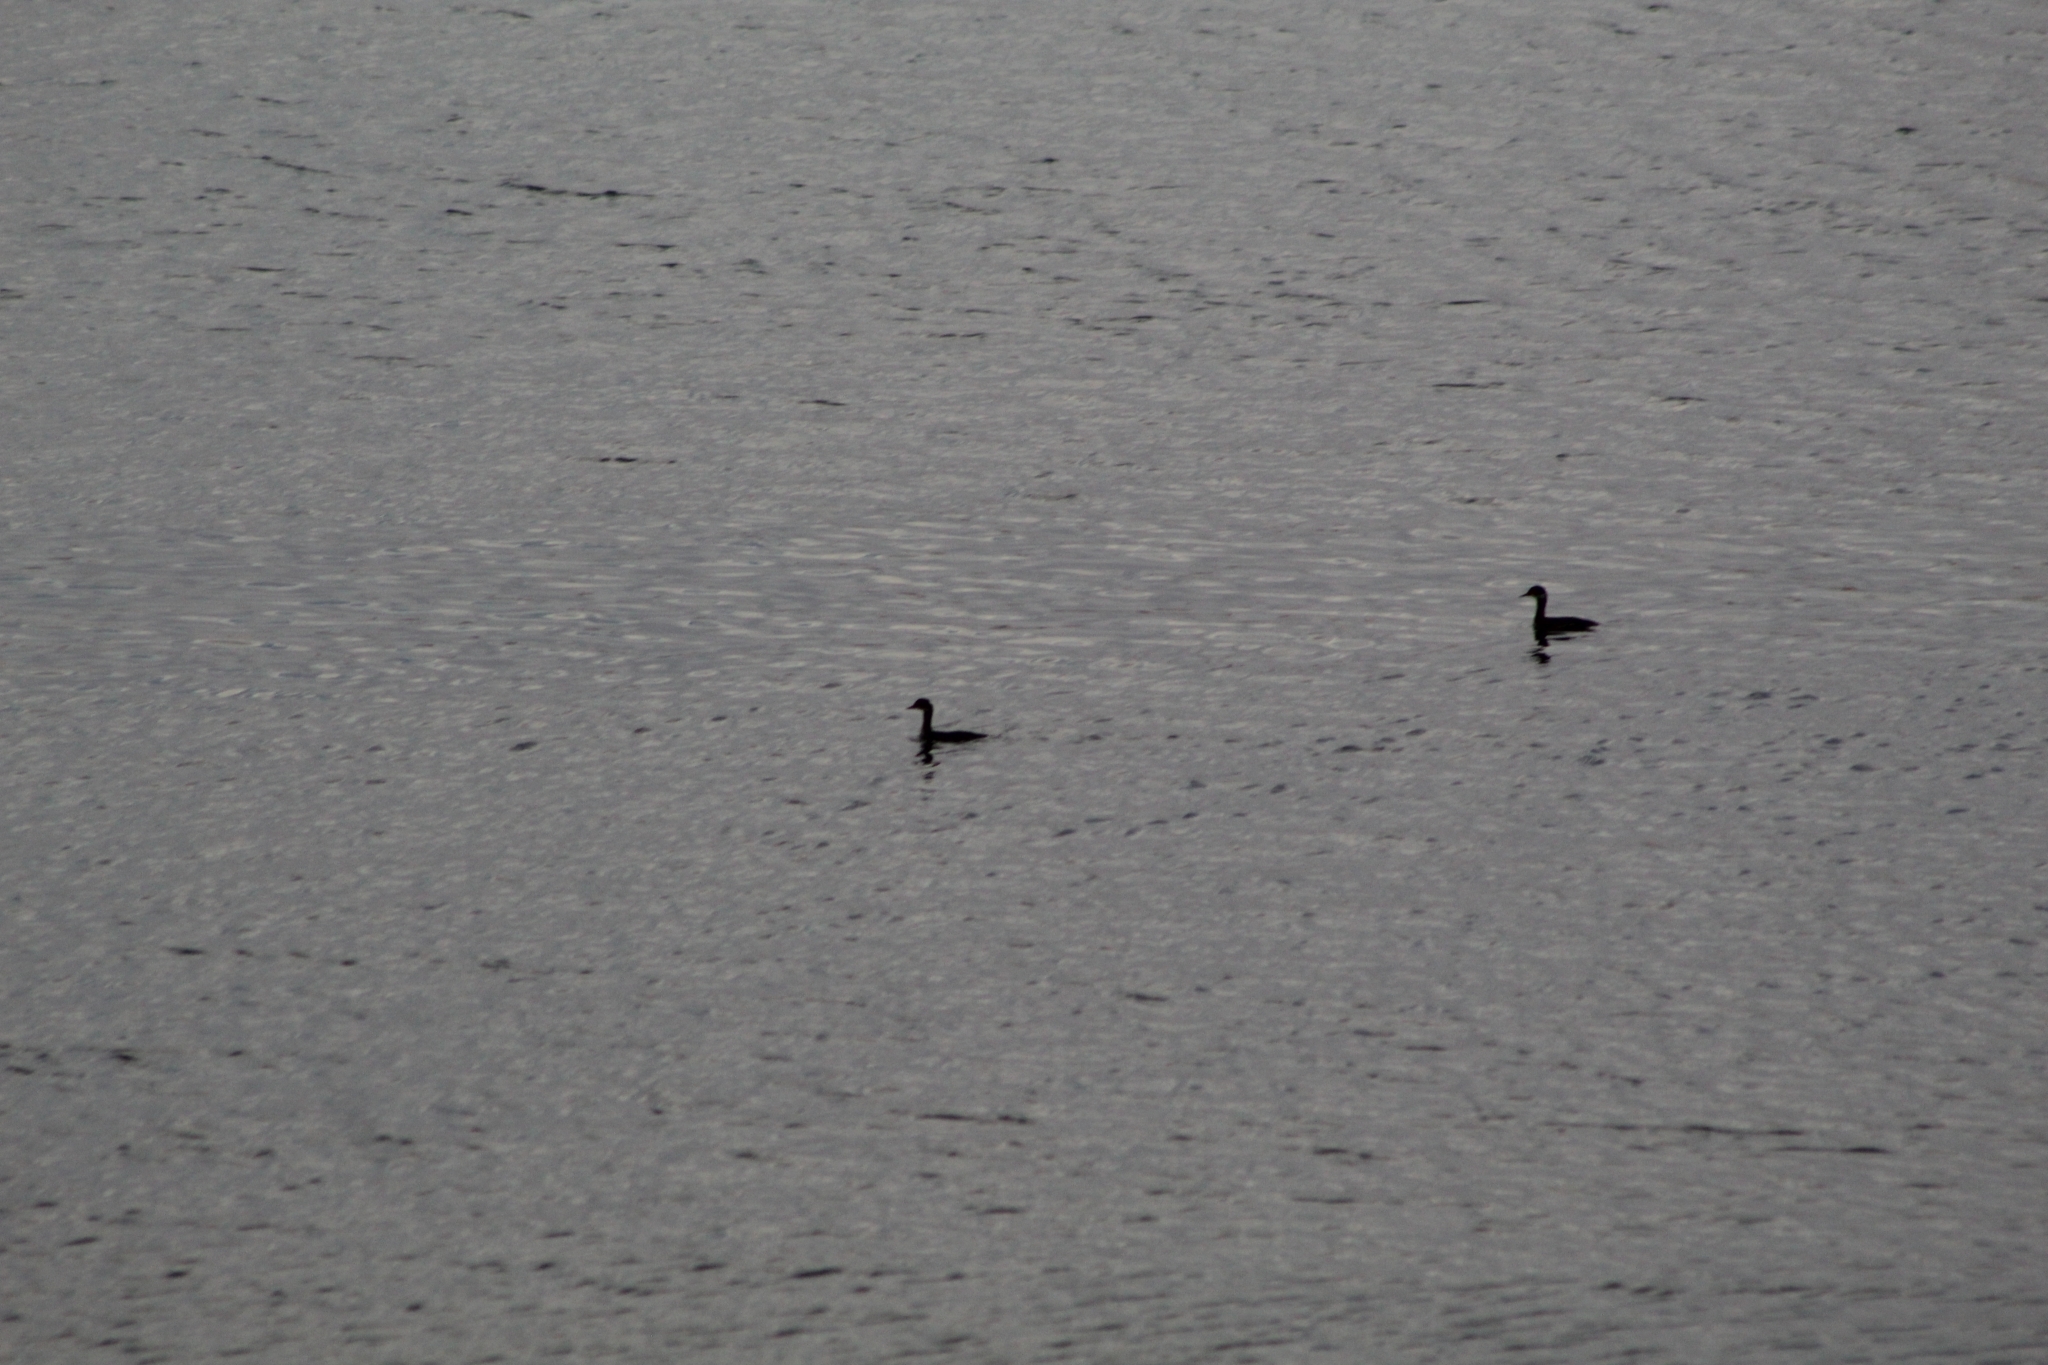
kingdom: Animalia
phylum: Chordata
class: Aves
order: Podicipediformes
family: Podicipedidae
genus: Podiceps
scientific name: Podiceps nigricollis
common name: Black-necked grebe
